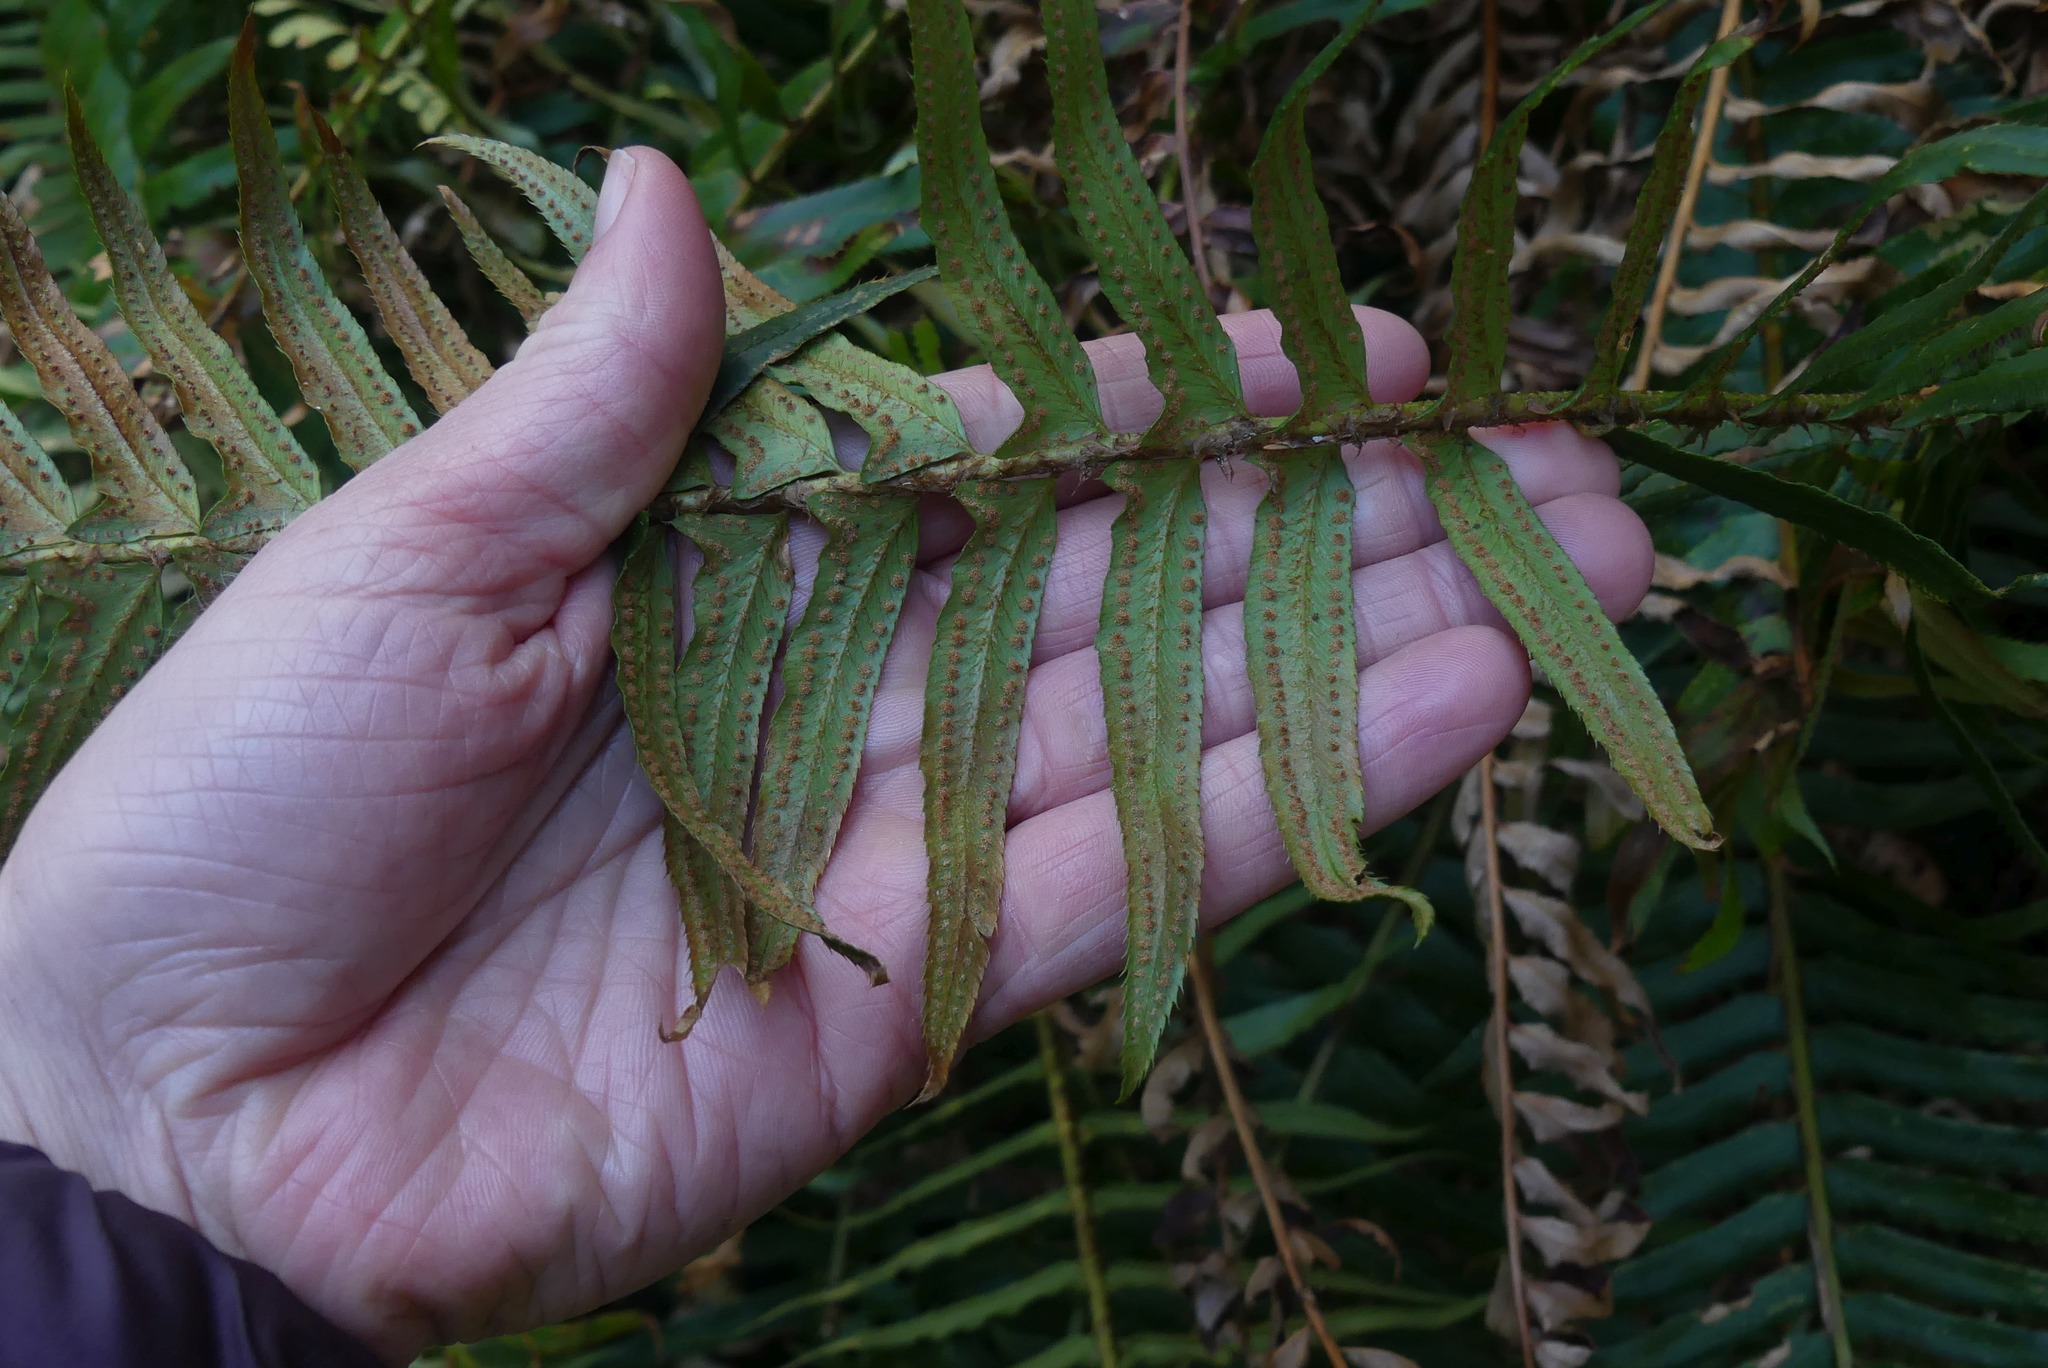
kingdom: Plantae
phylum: Tracheophyta
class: Polypodiopsida
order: Polypodiales
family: Dryopteridaceae
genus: Polystichum
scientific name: Polystichum munitum
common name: Western sword-fern
